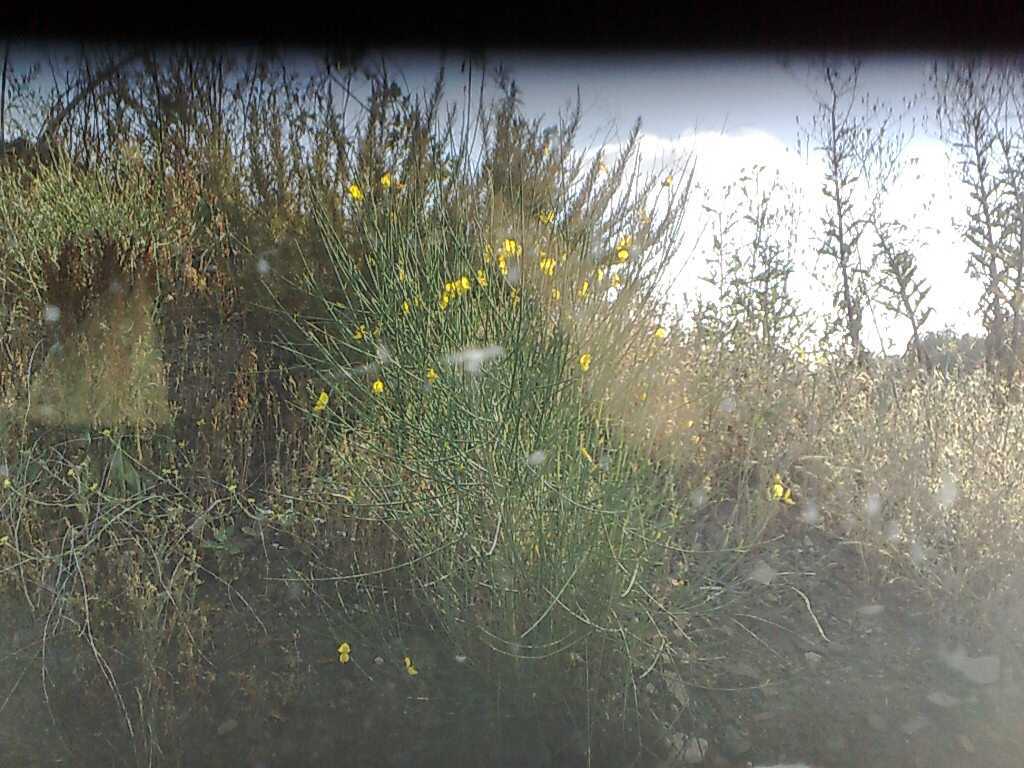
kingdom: Plantae
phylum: Tracheophyta
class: Magnoliopsida
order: Fabales
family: Fabaceae
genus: Spartium
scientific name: Spartium junceum
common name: Spanish broom
